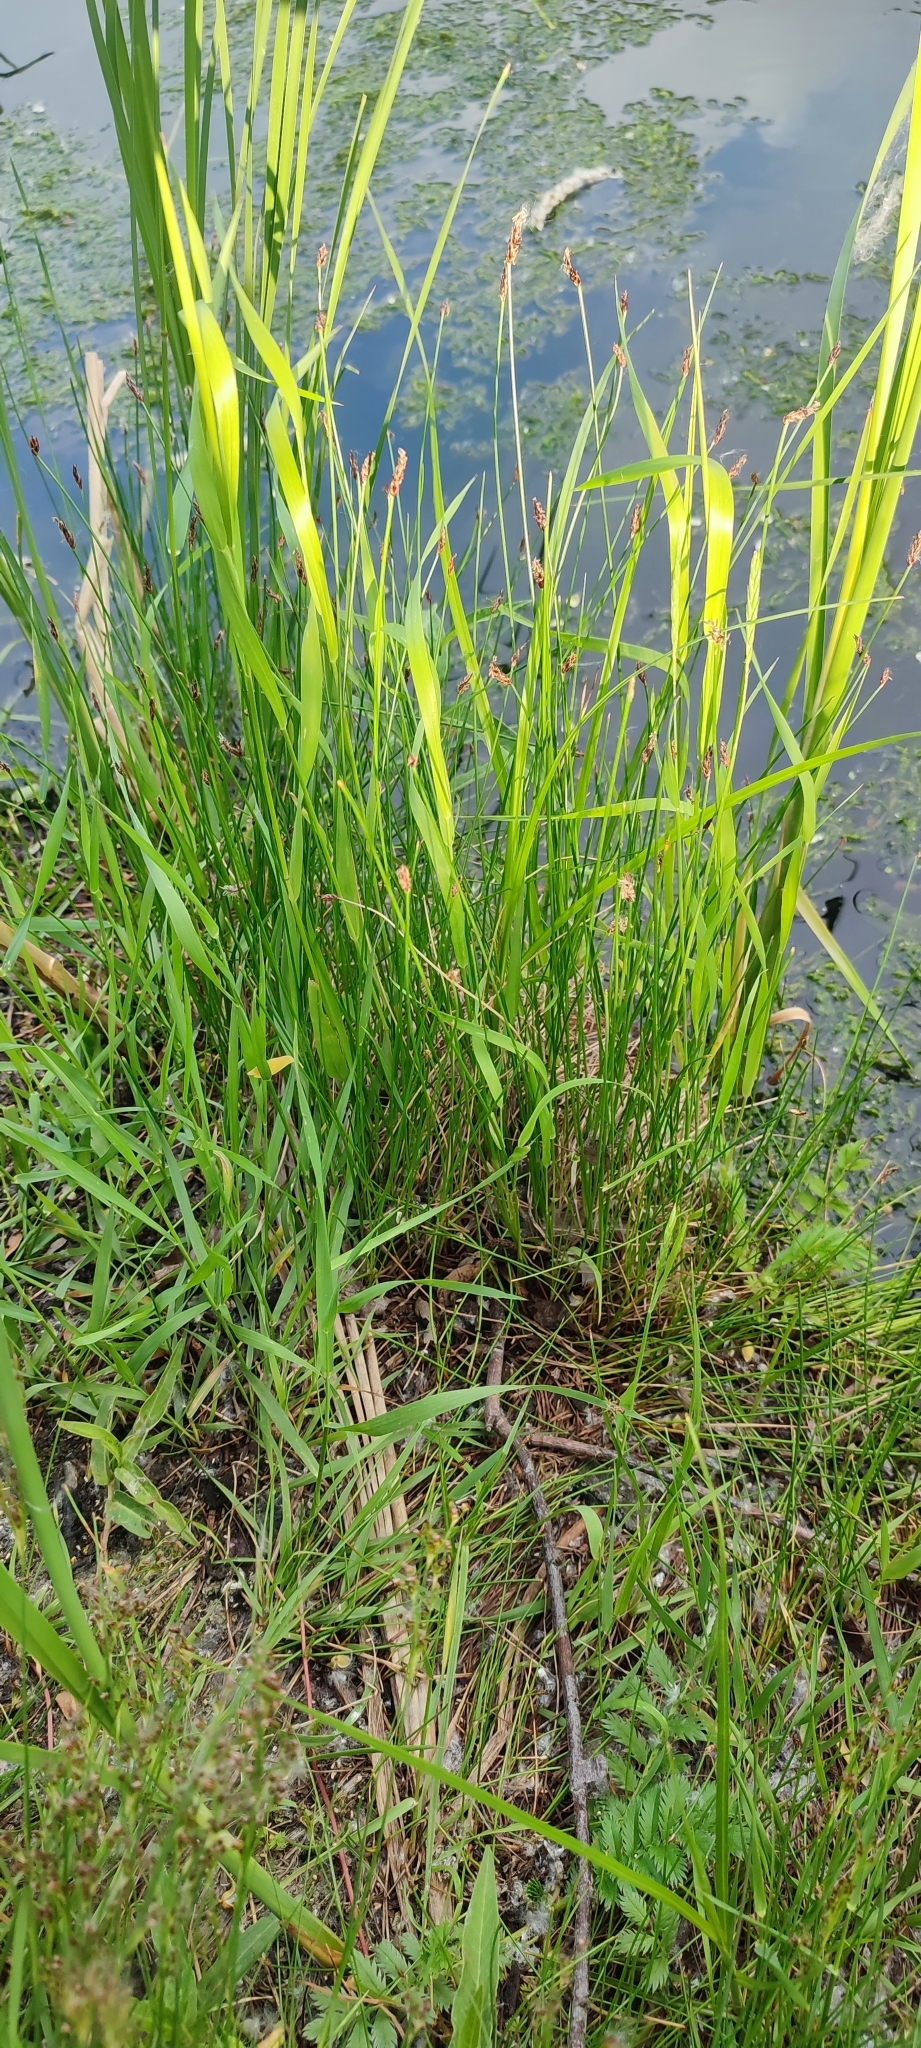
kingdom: Plantae
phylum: Tracheophyta
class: Liliopsida
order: Poales
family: Cyperaceae
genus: Eleocharis
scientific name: Eleocharis palustris
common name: Common spike-rush
